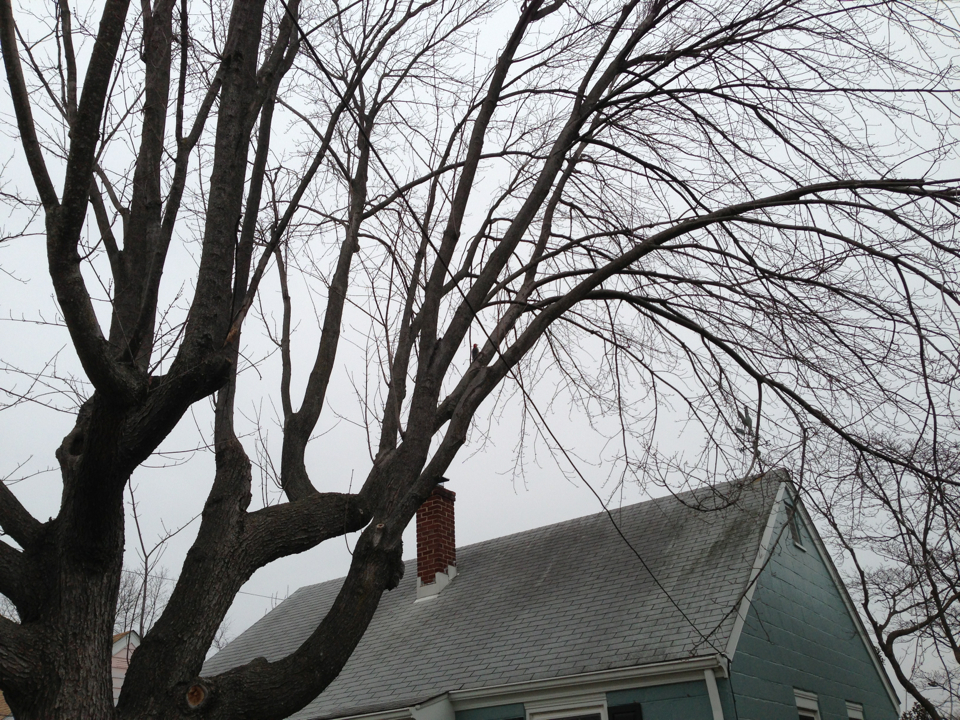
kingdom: Animalia
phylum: Chordata
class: Aves
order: Piciformes
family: Picidae
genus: Melanerpes
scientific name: Melanerpes carolinus
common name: Red-bellied woodpecker
